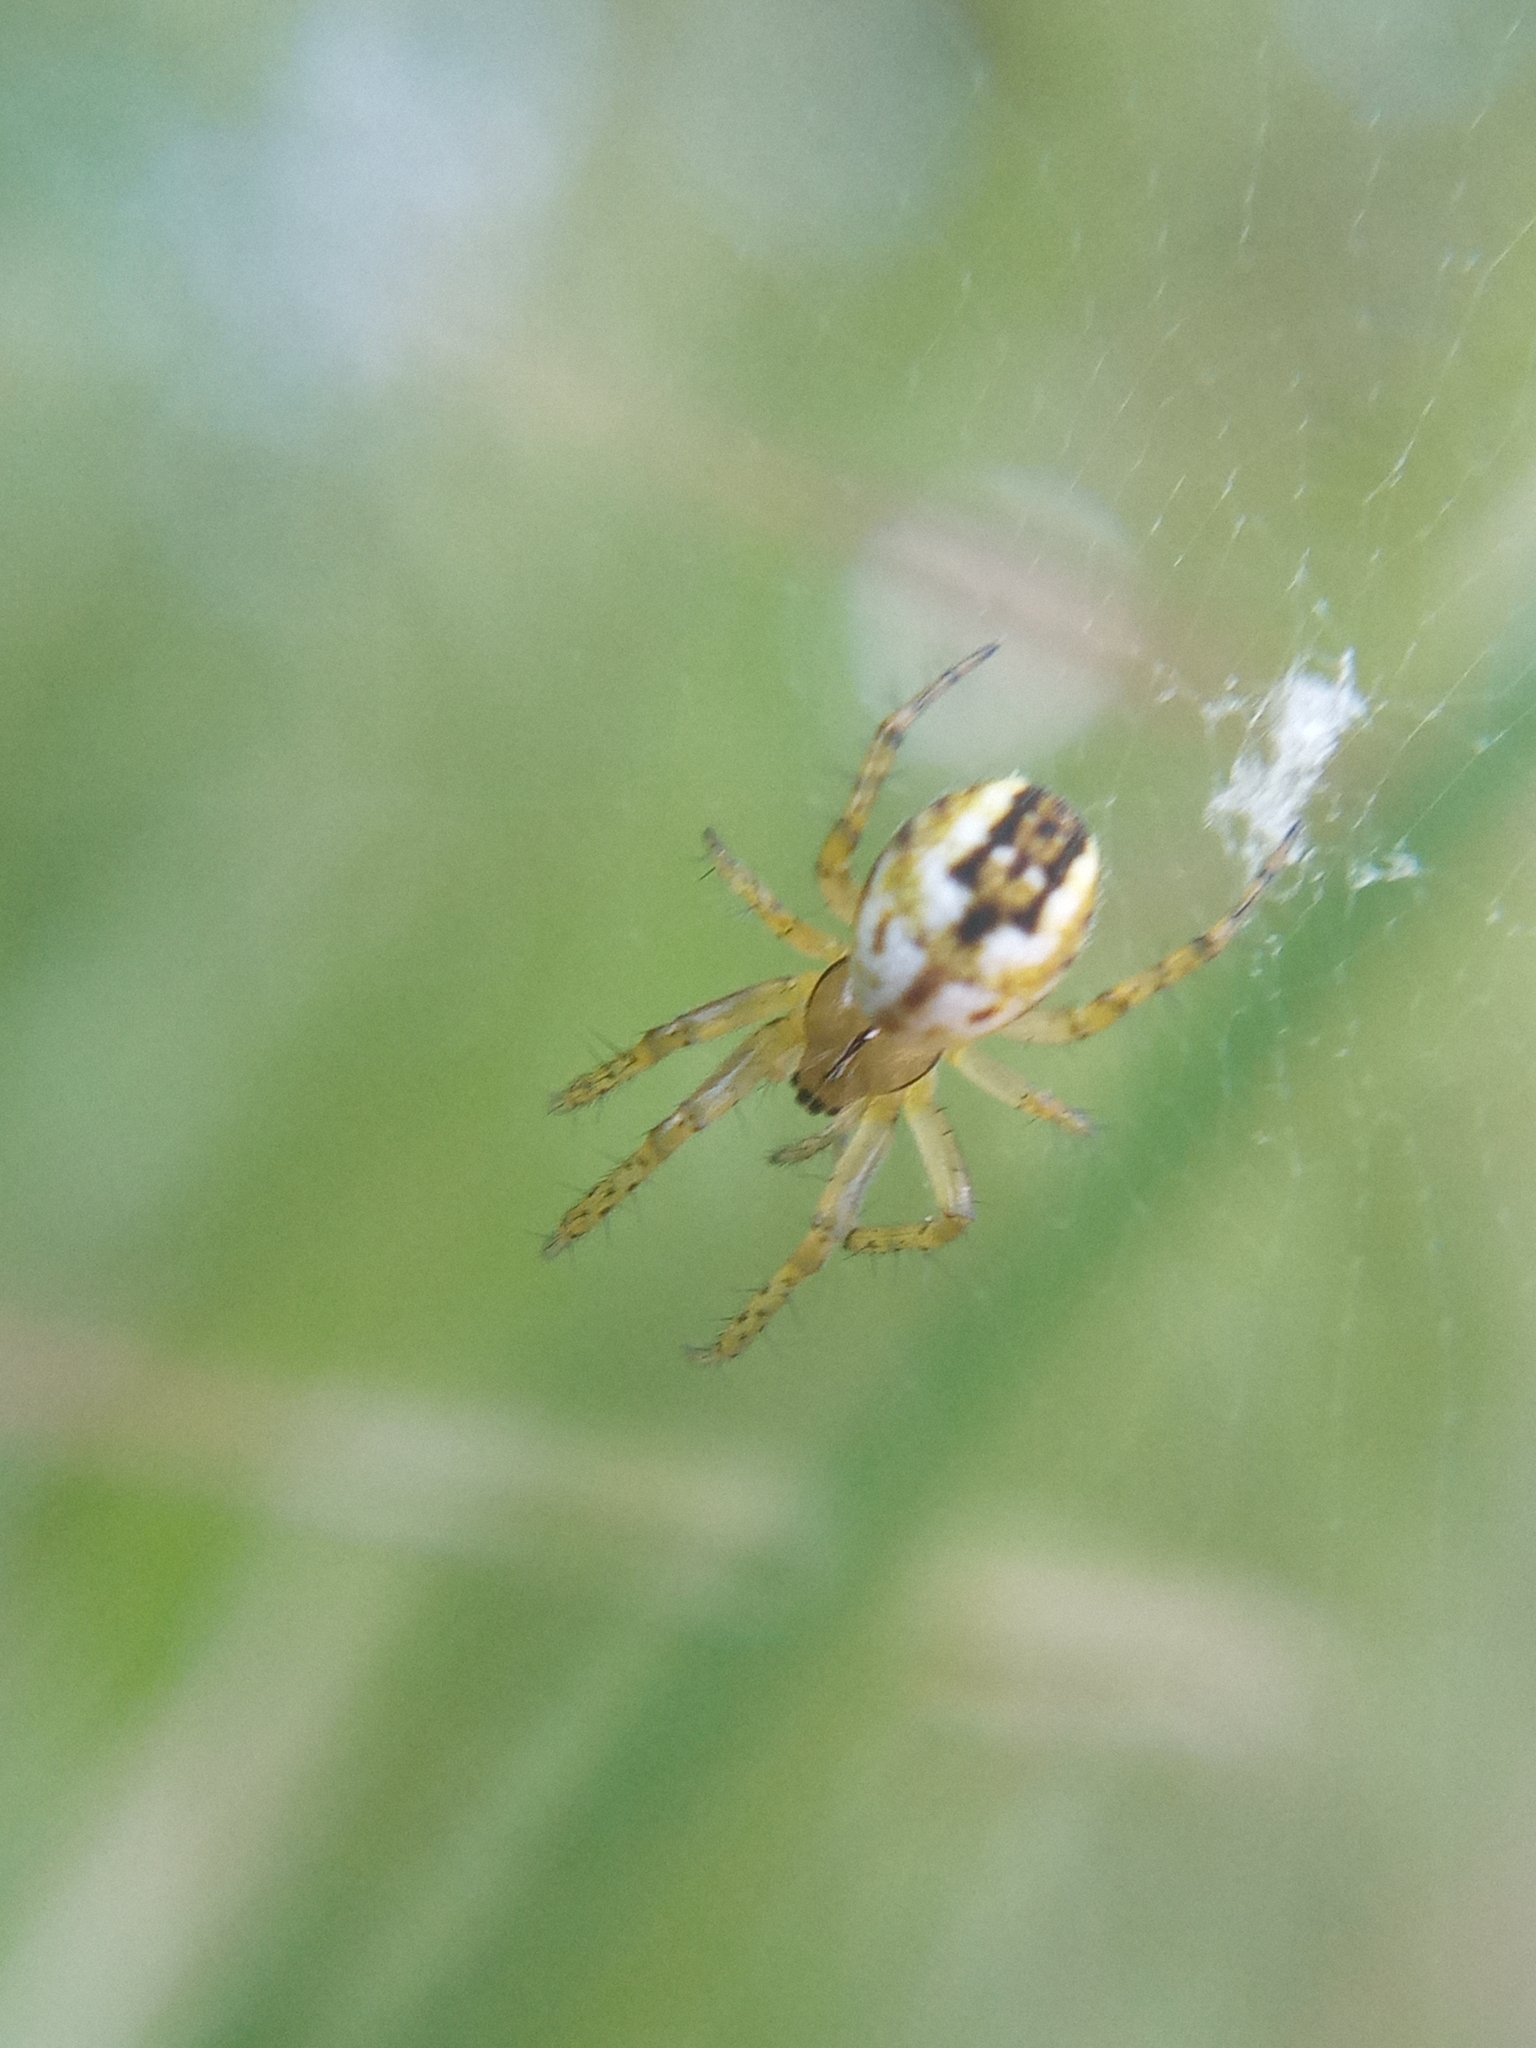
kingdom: Animalia
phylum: Arthropoda
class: Arachnida
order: Araneae
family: Araneidae
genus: Mangora
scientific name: Mangora acalypha
